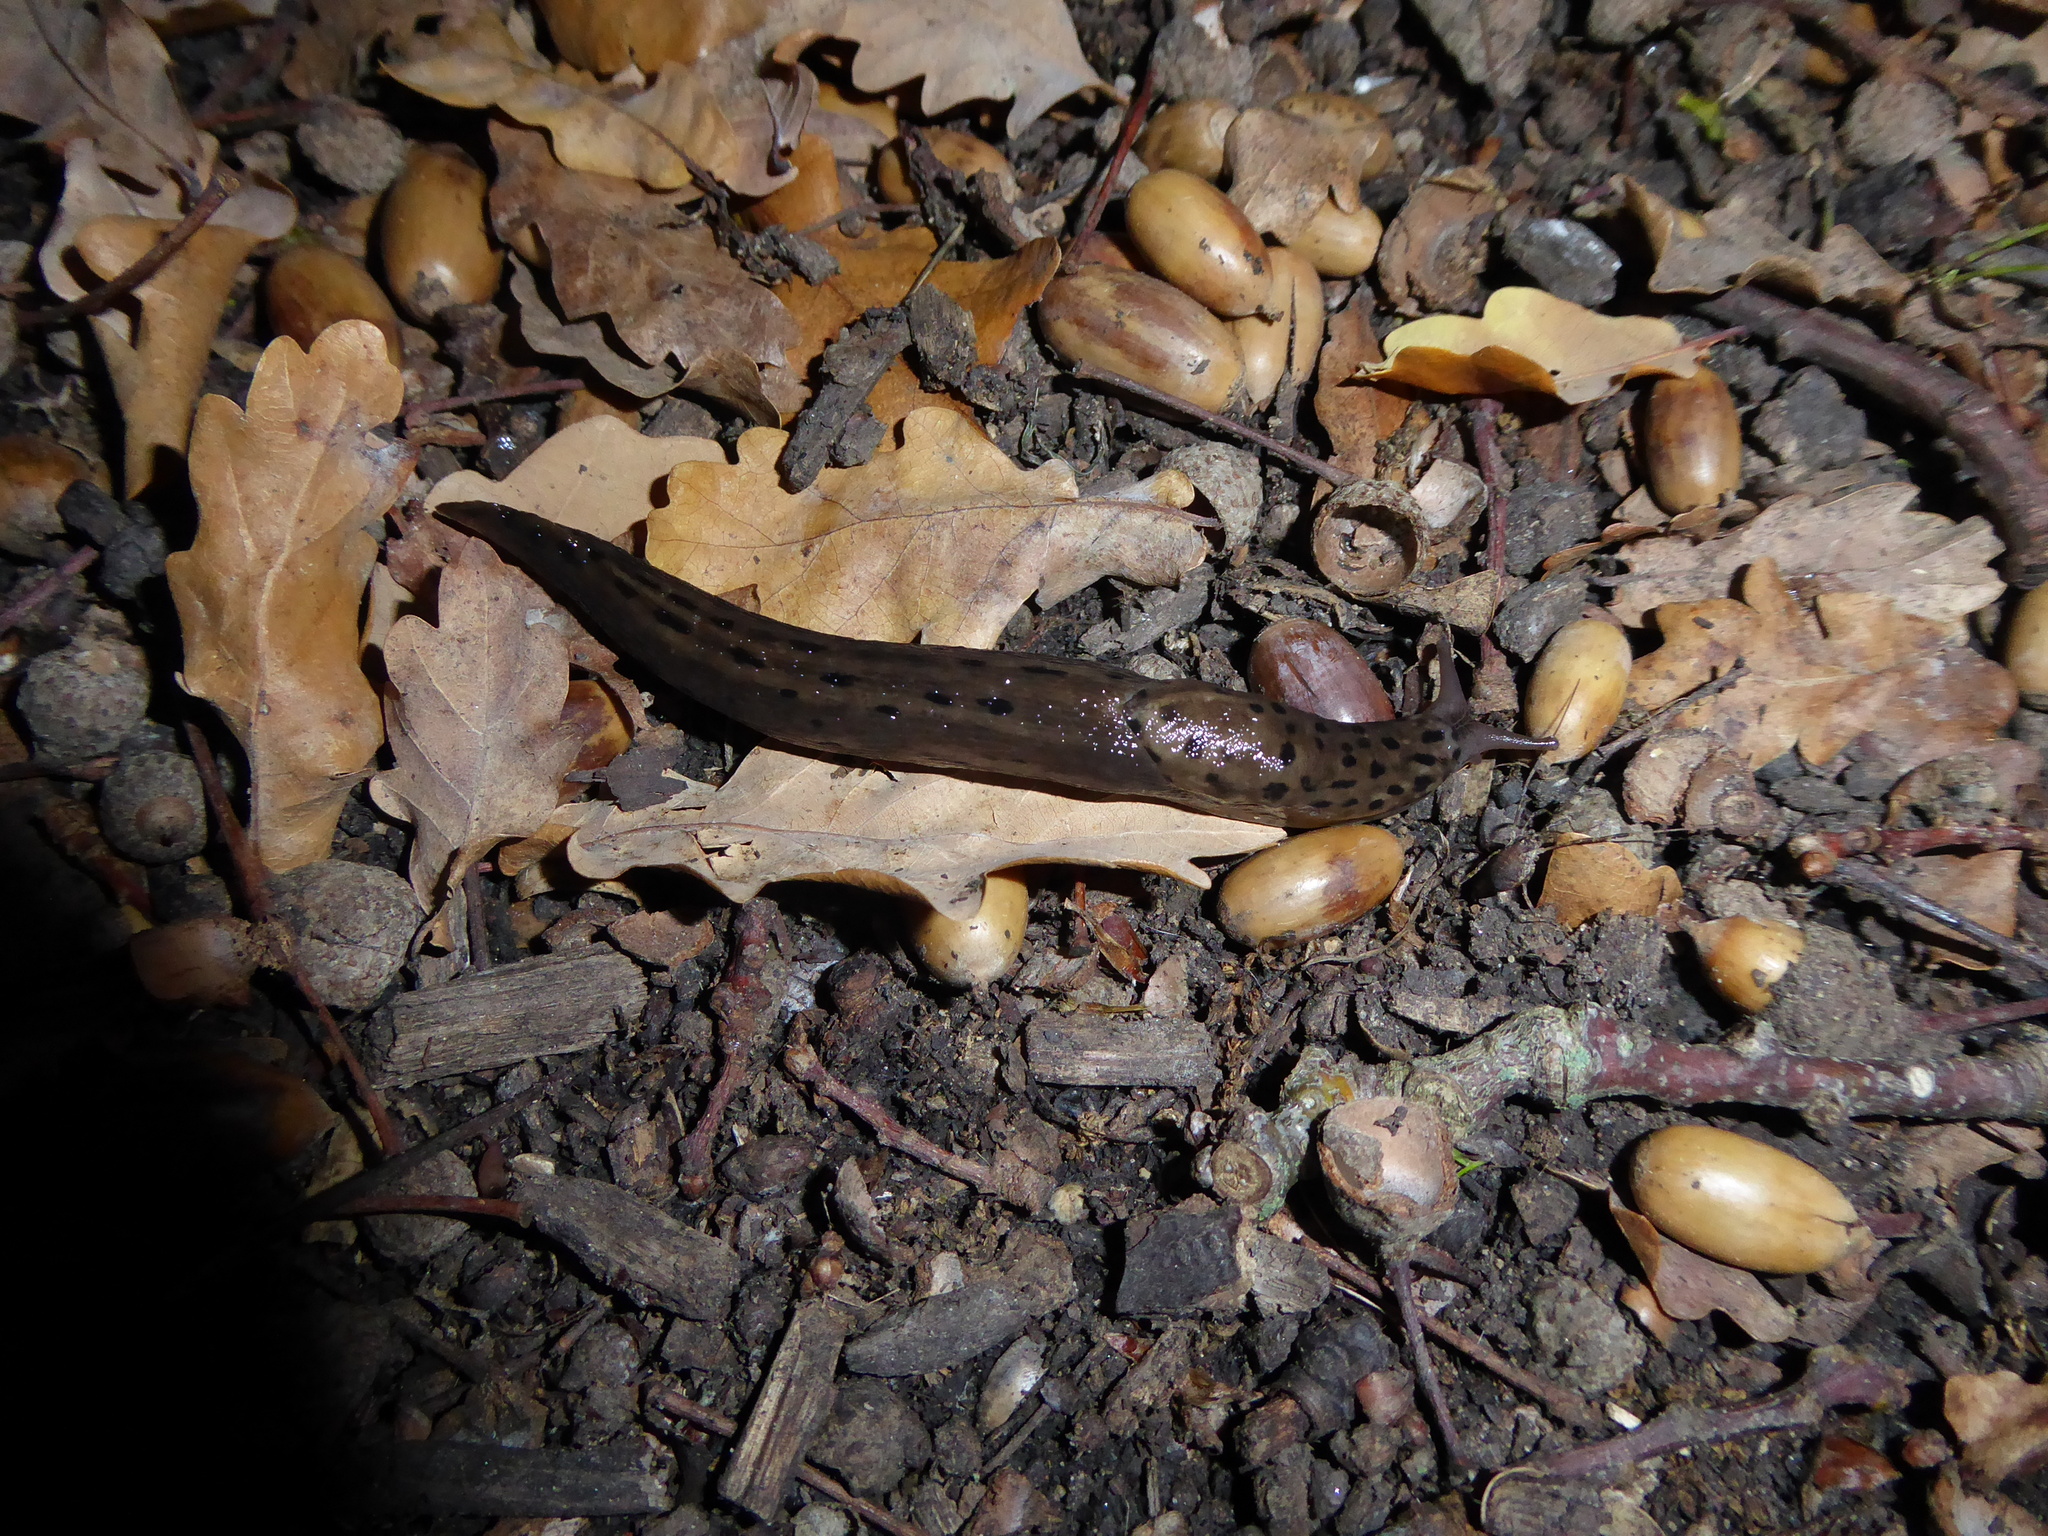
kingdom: Animalia
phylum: Mollusca
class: Gastropoda
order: Stylommatophora
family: Limacidae
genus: Limax
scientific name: Limax maximus
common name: Great grey slug
